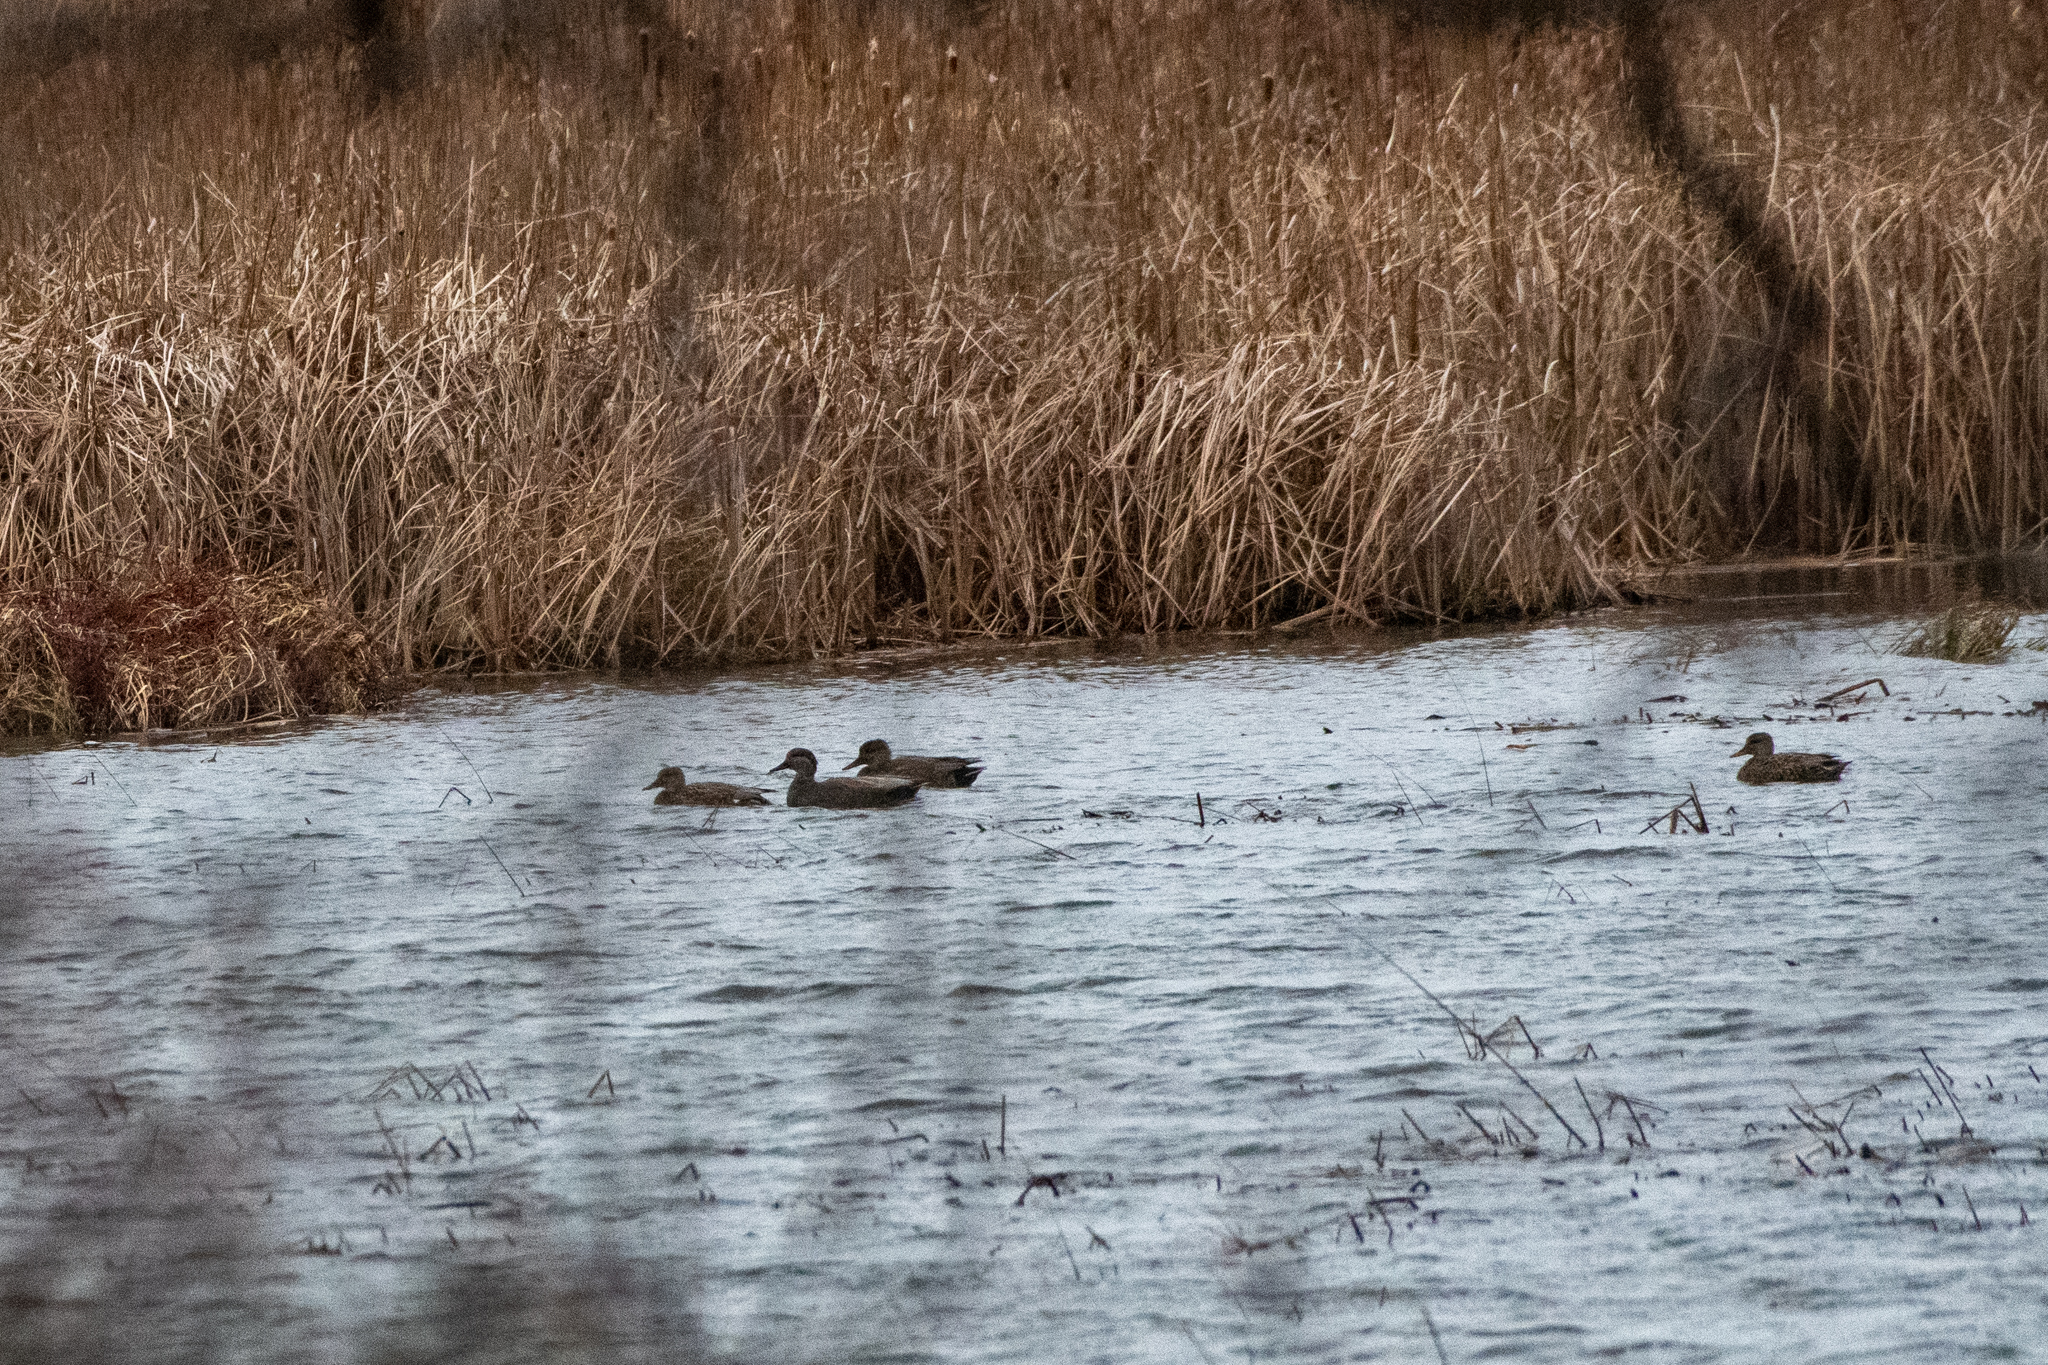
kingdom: Animalia
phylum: Chordata
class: Aves
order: Anseriformes
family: Anatidae
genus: Mareca
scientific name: Mareca strepera
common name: Gadwall
